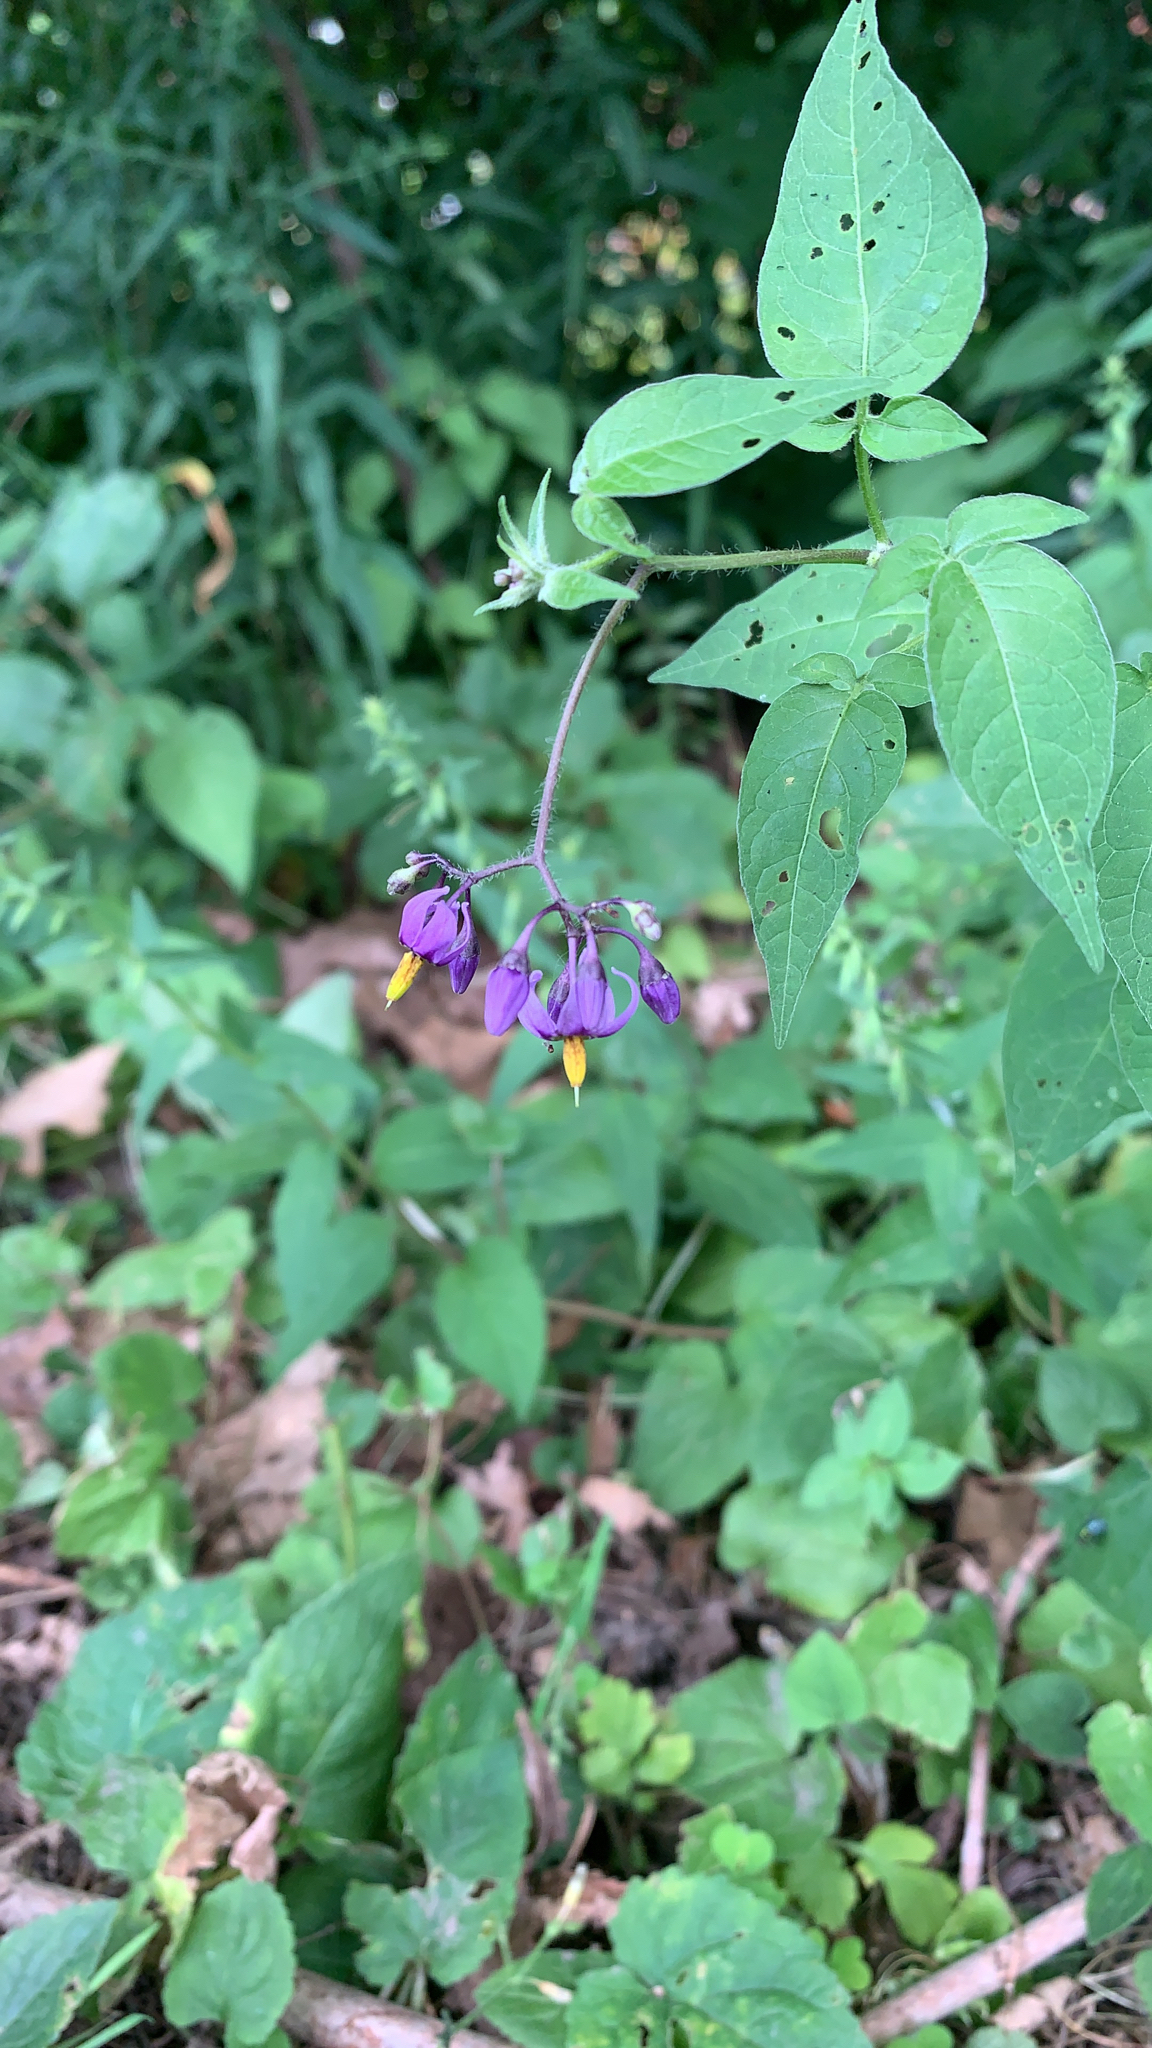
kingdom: Plantae
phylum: Tracheophyta
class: Magnoliopsida
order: Solanales
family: Solanaceae
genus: Solanum
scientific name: Solanum dulcamara
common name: Climbing nightshade
